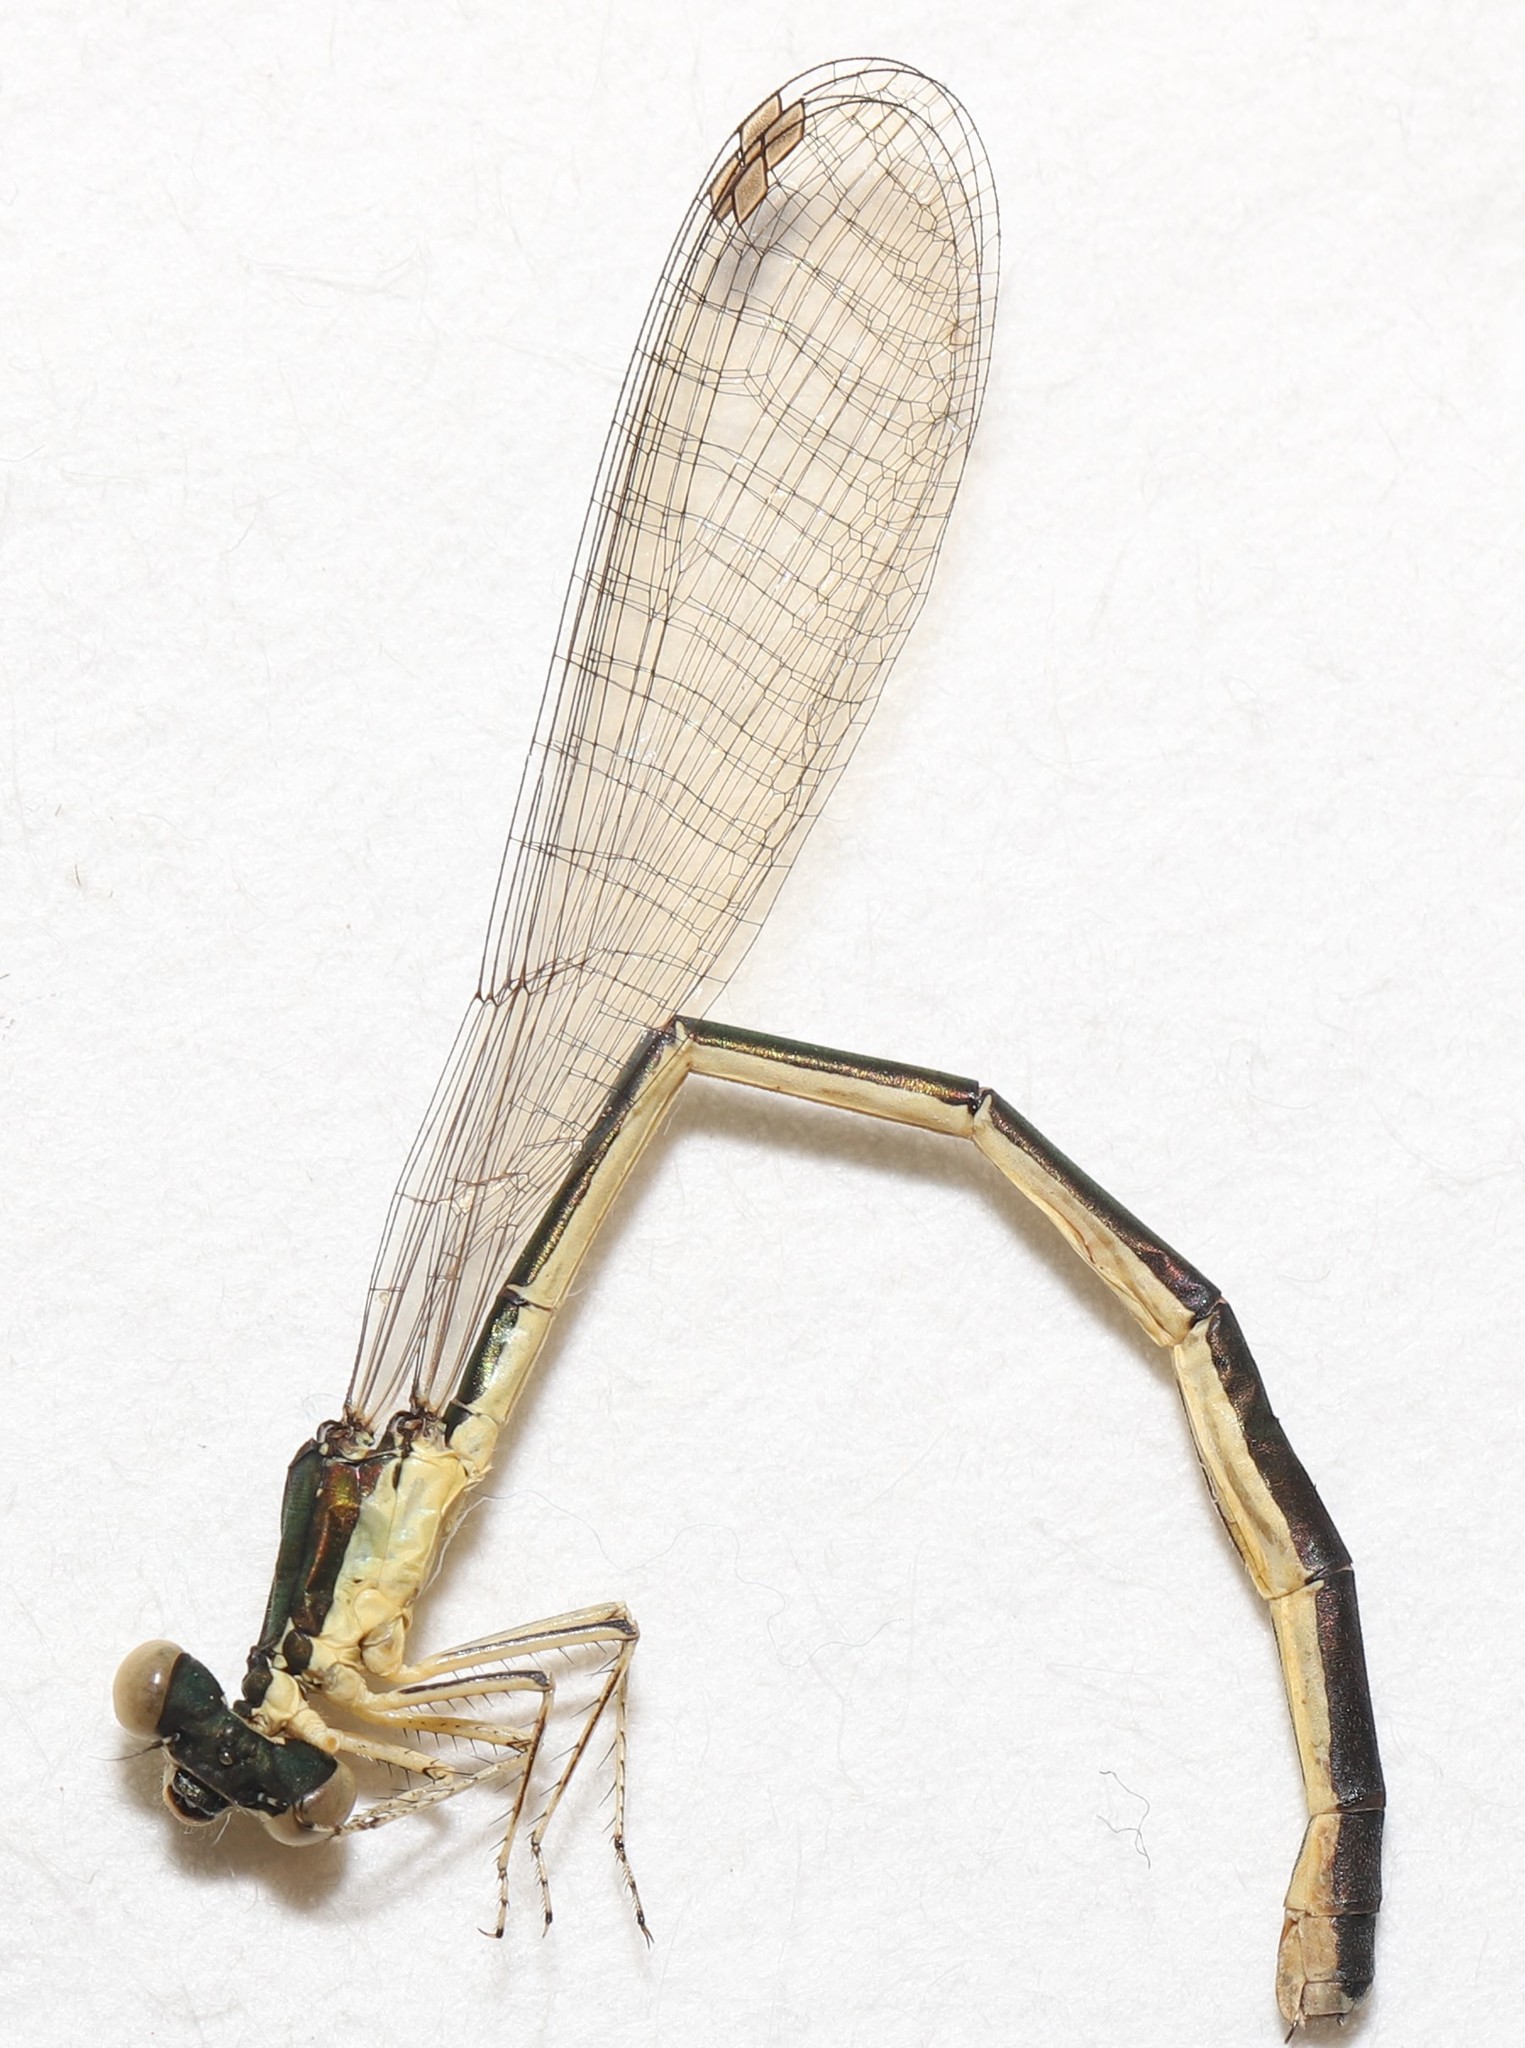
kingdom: Animalia
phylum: Arthropoda
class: Insecta
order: Odonata
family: Coenagrionidae
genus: Nehalennia
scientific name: Nehalennia irene
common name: Sedge sprite
